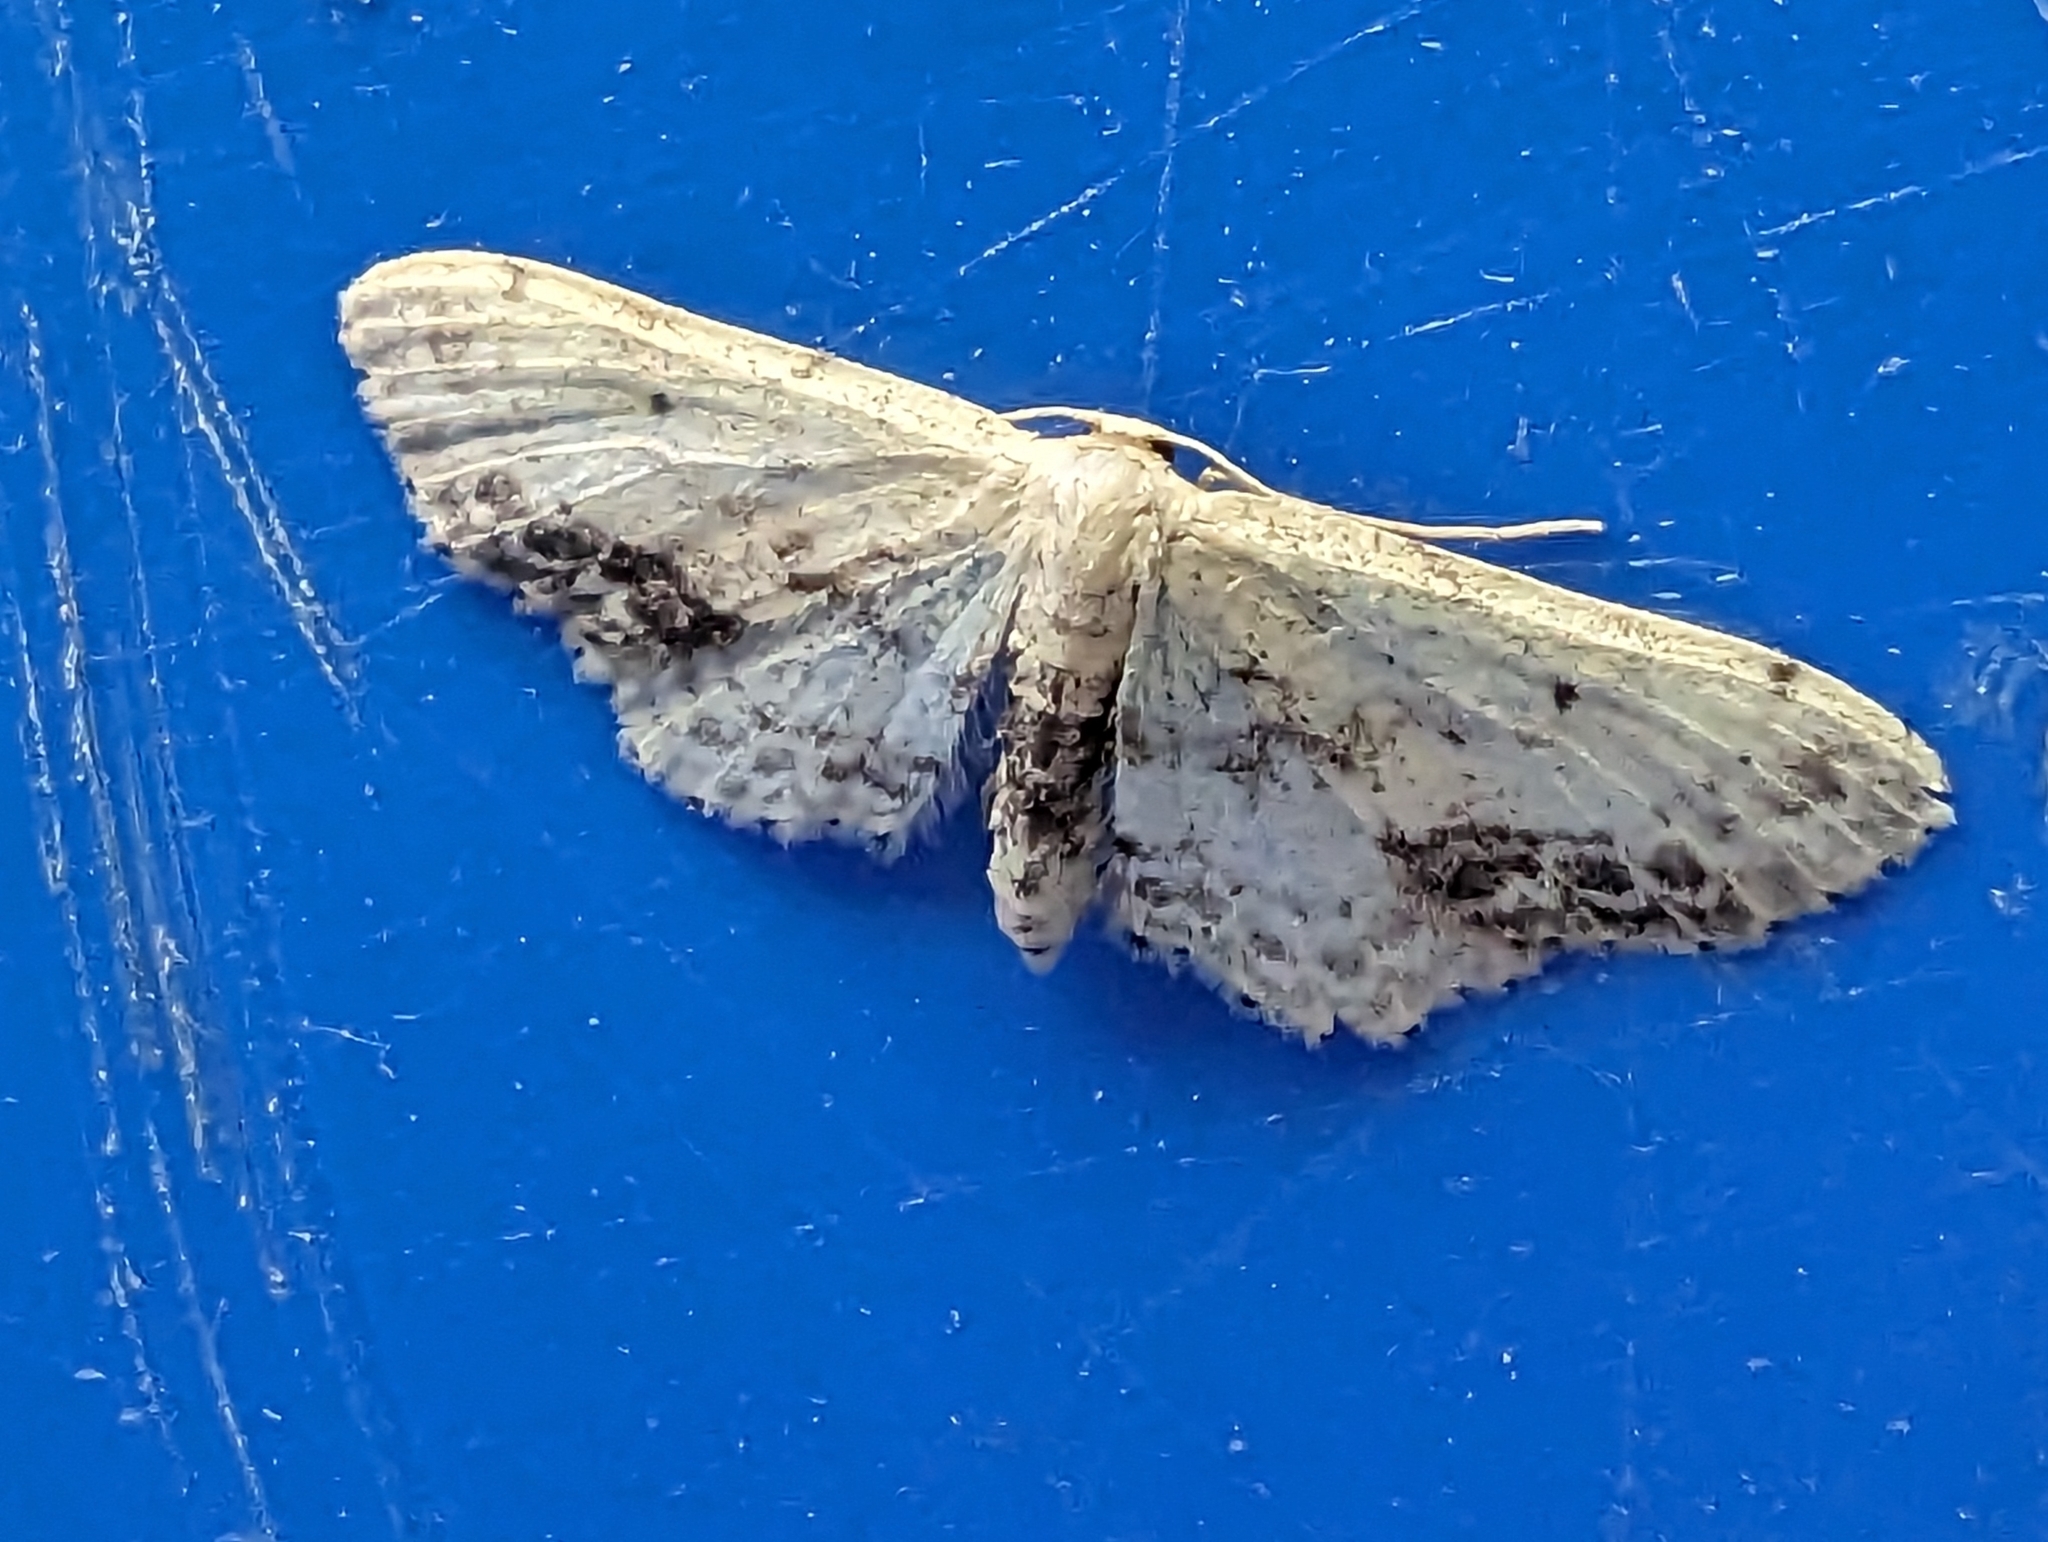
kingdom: Animalia
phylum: Arthropoda
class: Insecta
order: Lepidoptera
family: Geometridae
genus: Idaea
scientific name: Idaea dimidiata
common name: Single-dotted wave
